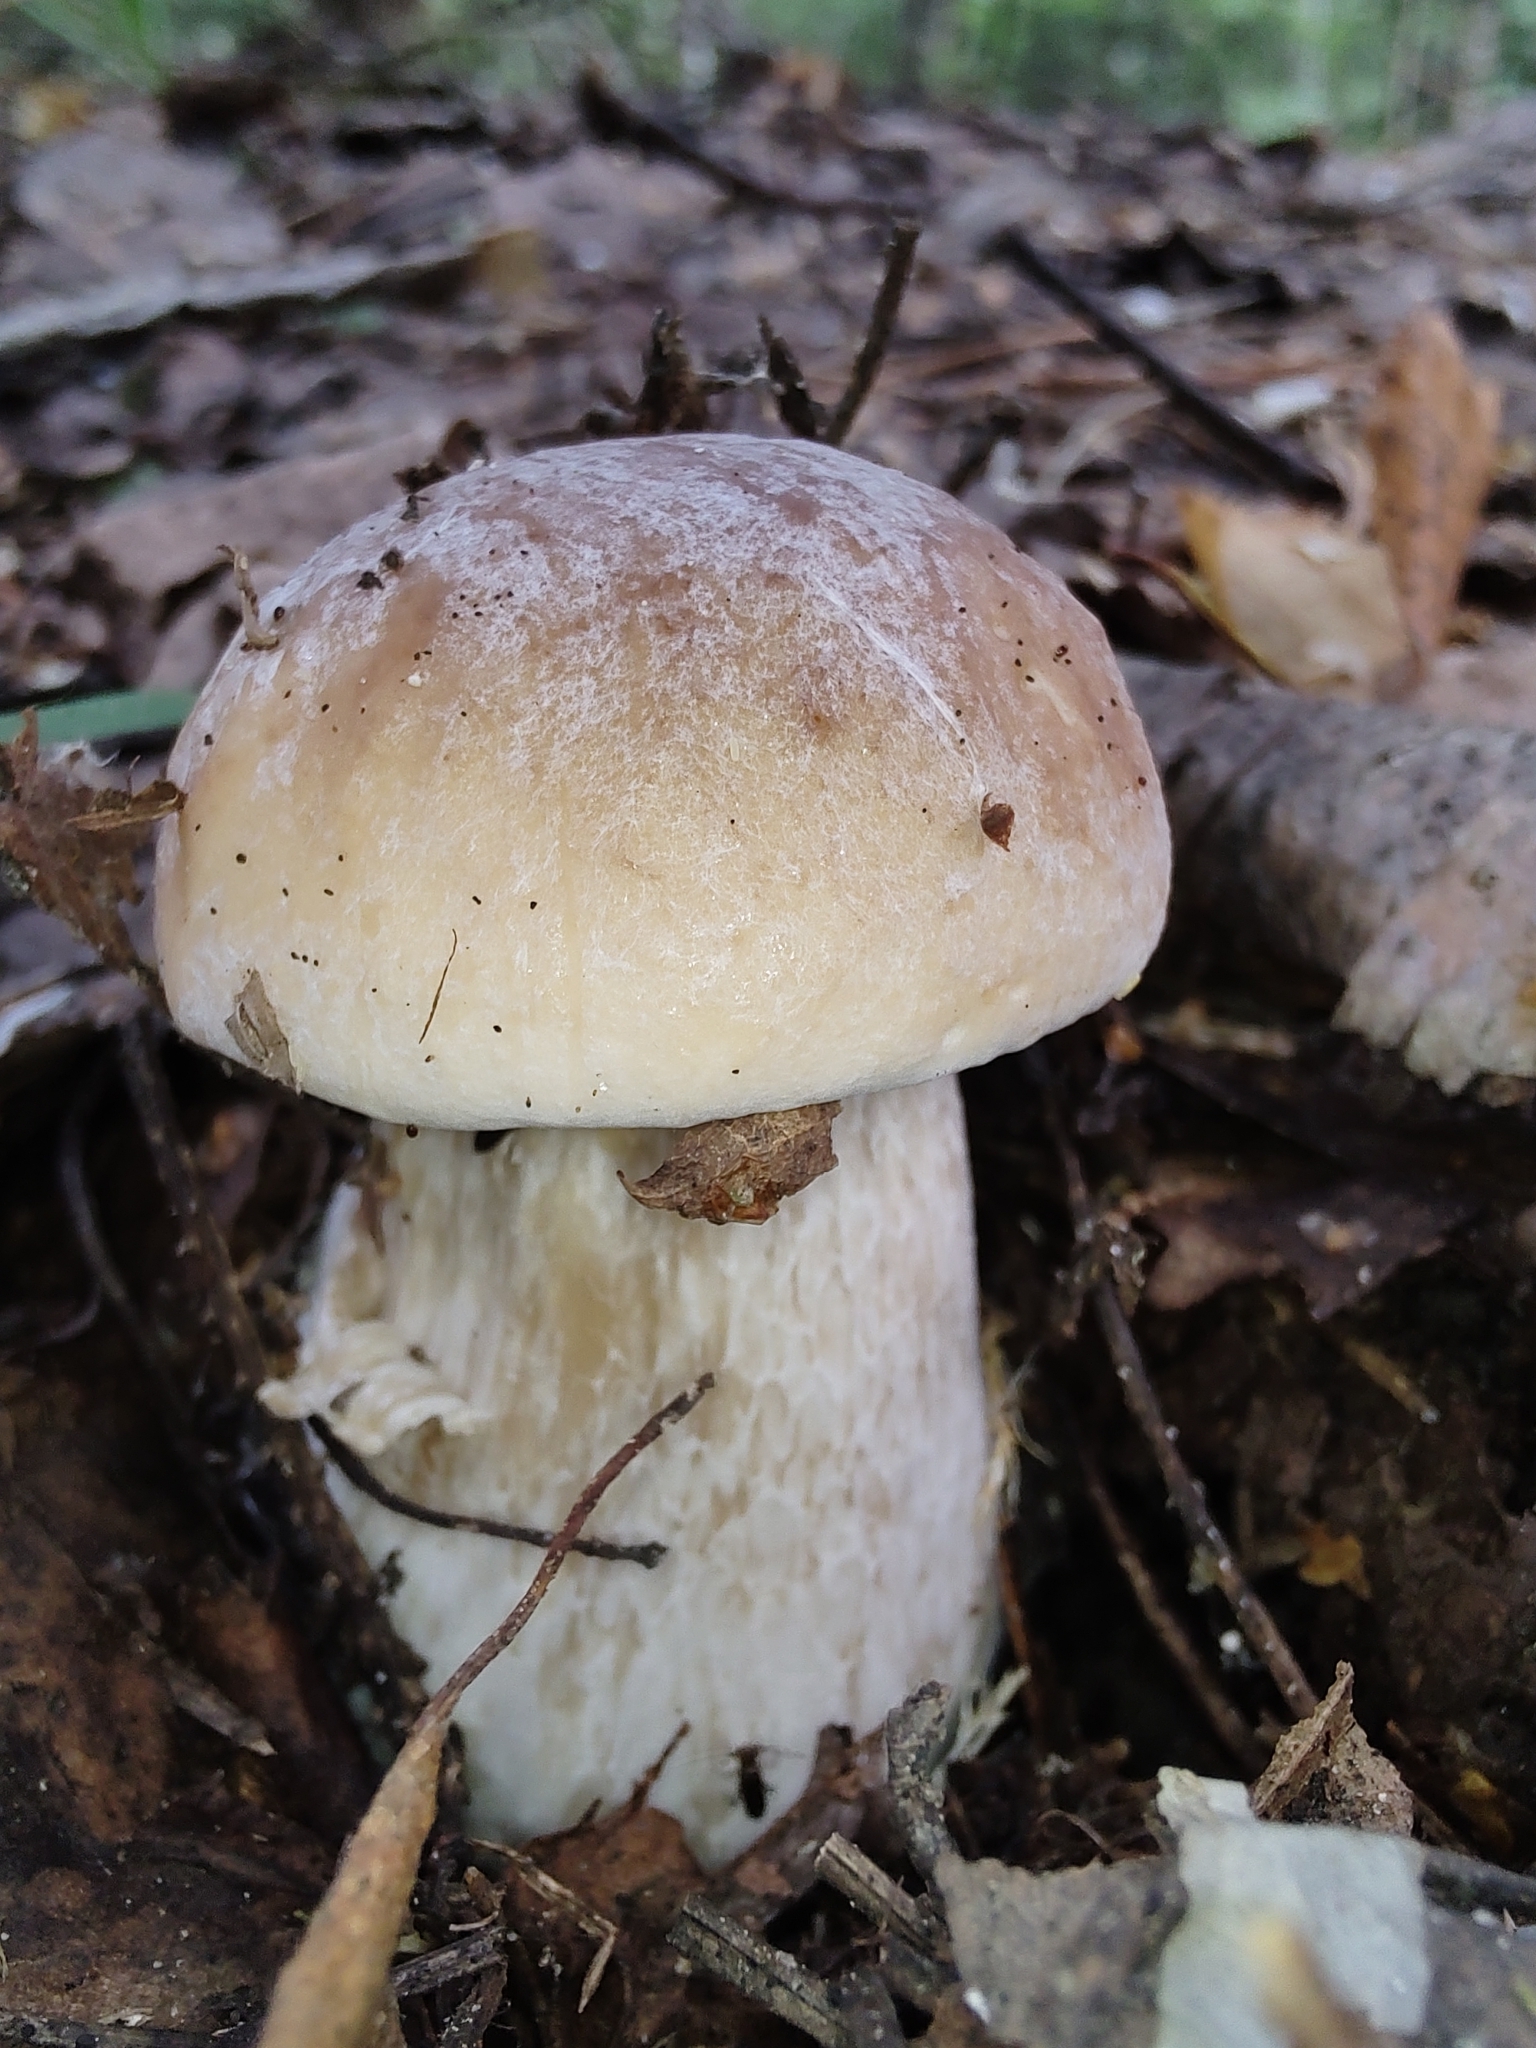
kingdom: Fungi
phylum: Basidiomycota
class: Agaricomycetes
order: Boletales
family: Boletaceae
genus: Boletus
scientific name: Boletus edulis
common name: Cep
